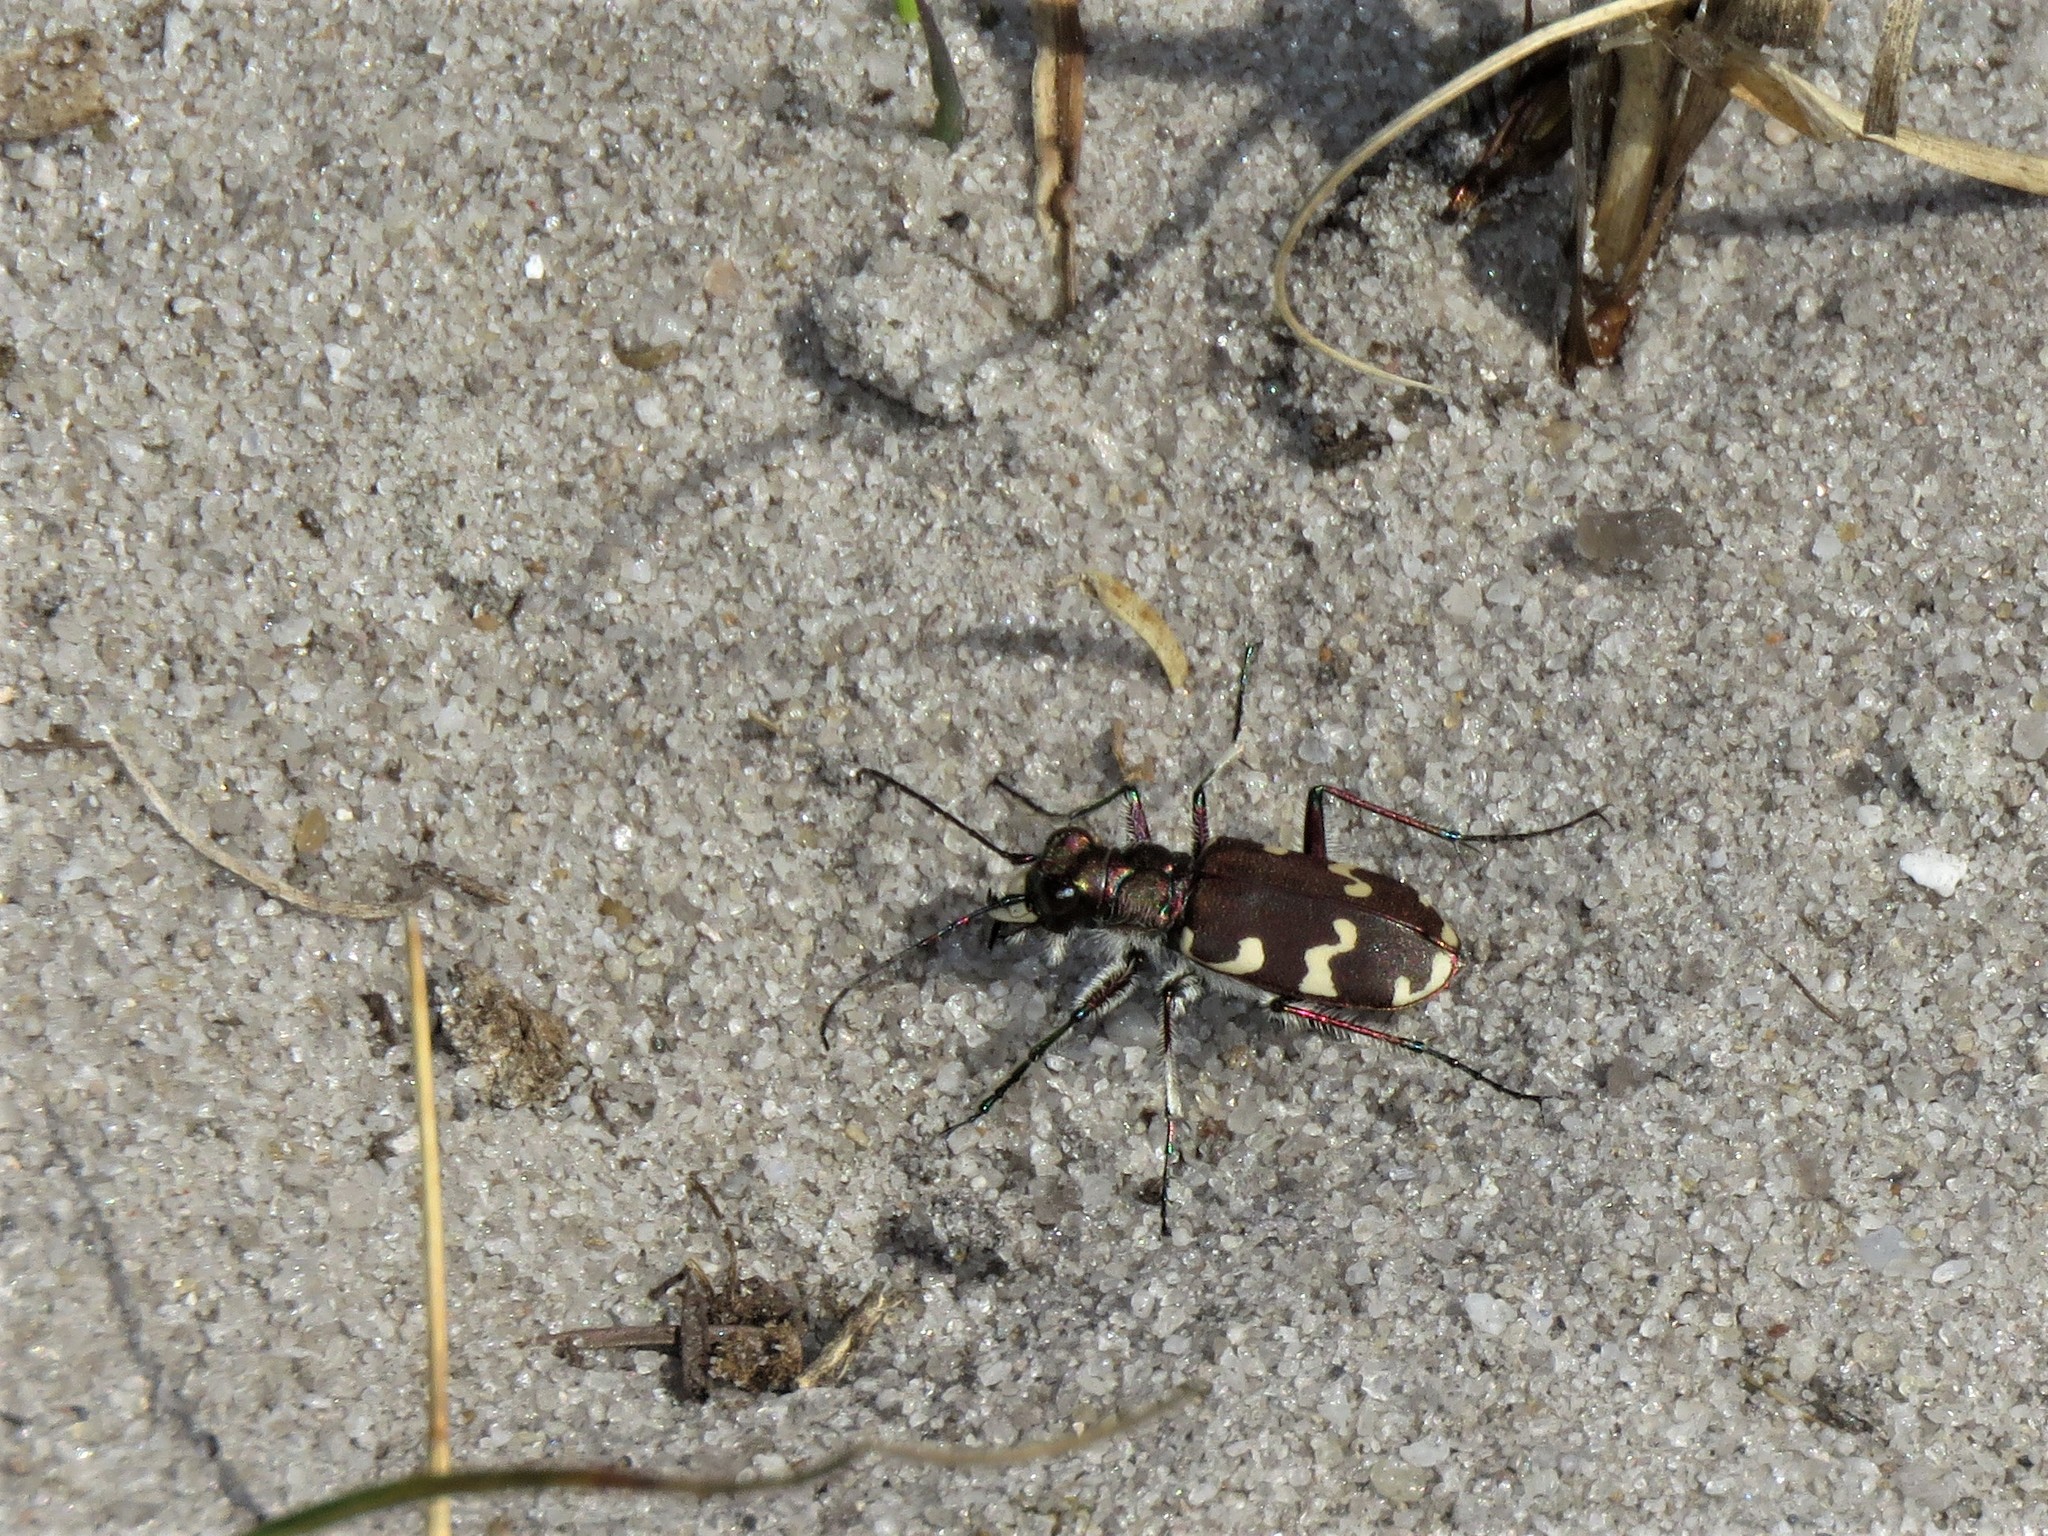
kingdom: Animalia
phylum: Arthropoda
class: Insecta
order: Coleoptera
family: Carabidae
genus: Cicindela
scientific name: Cicindela hybrida
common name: Northern dune tiger beetle
